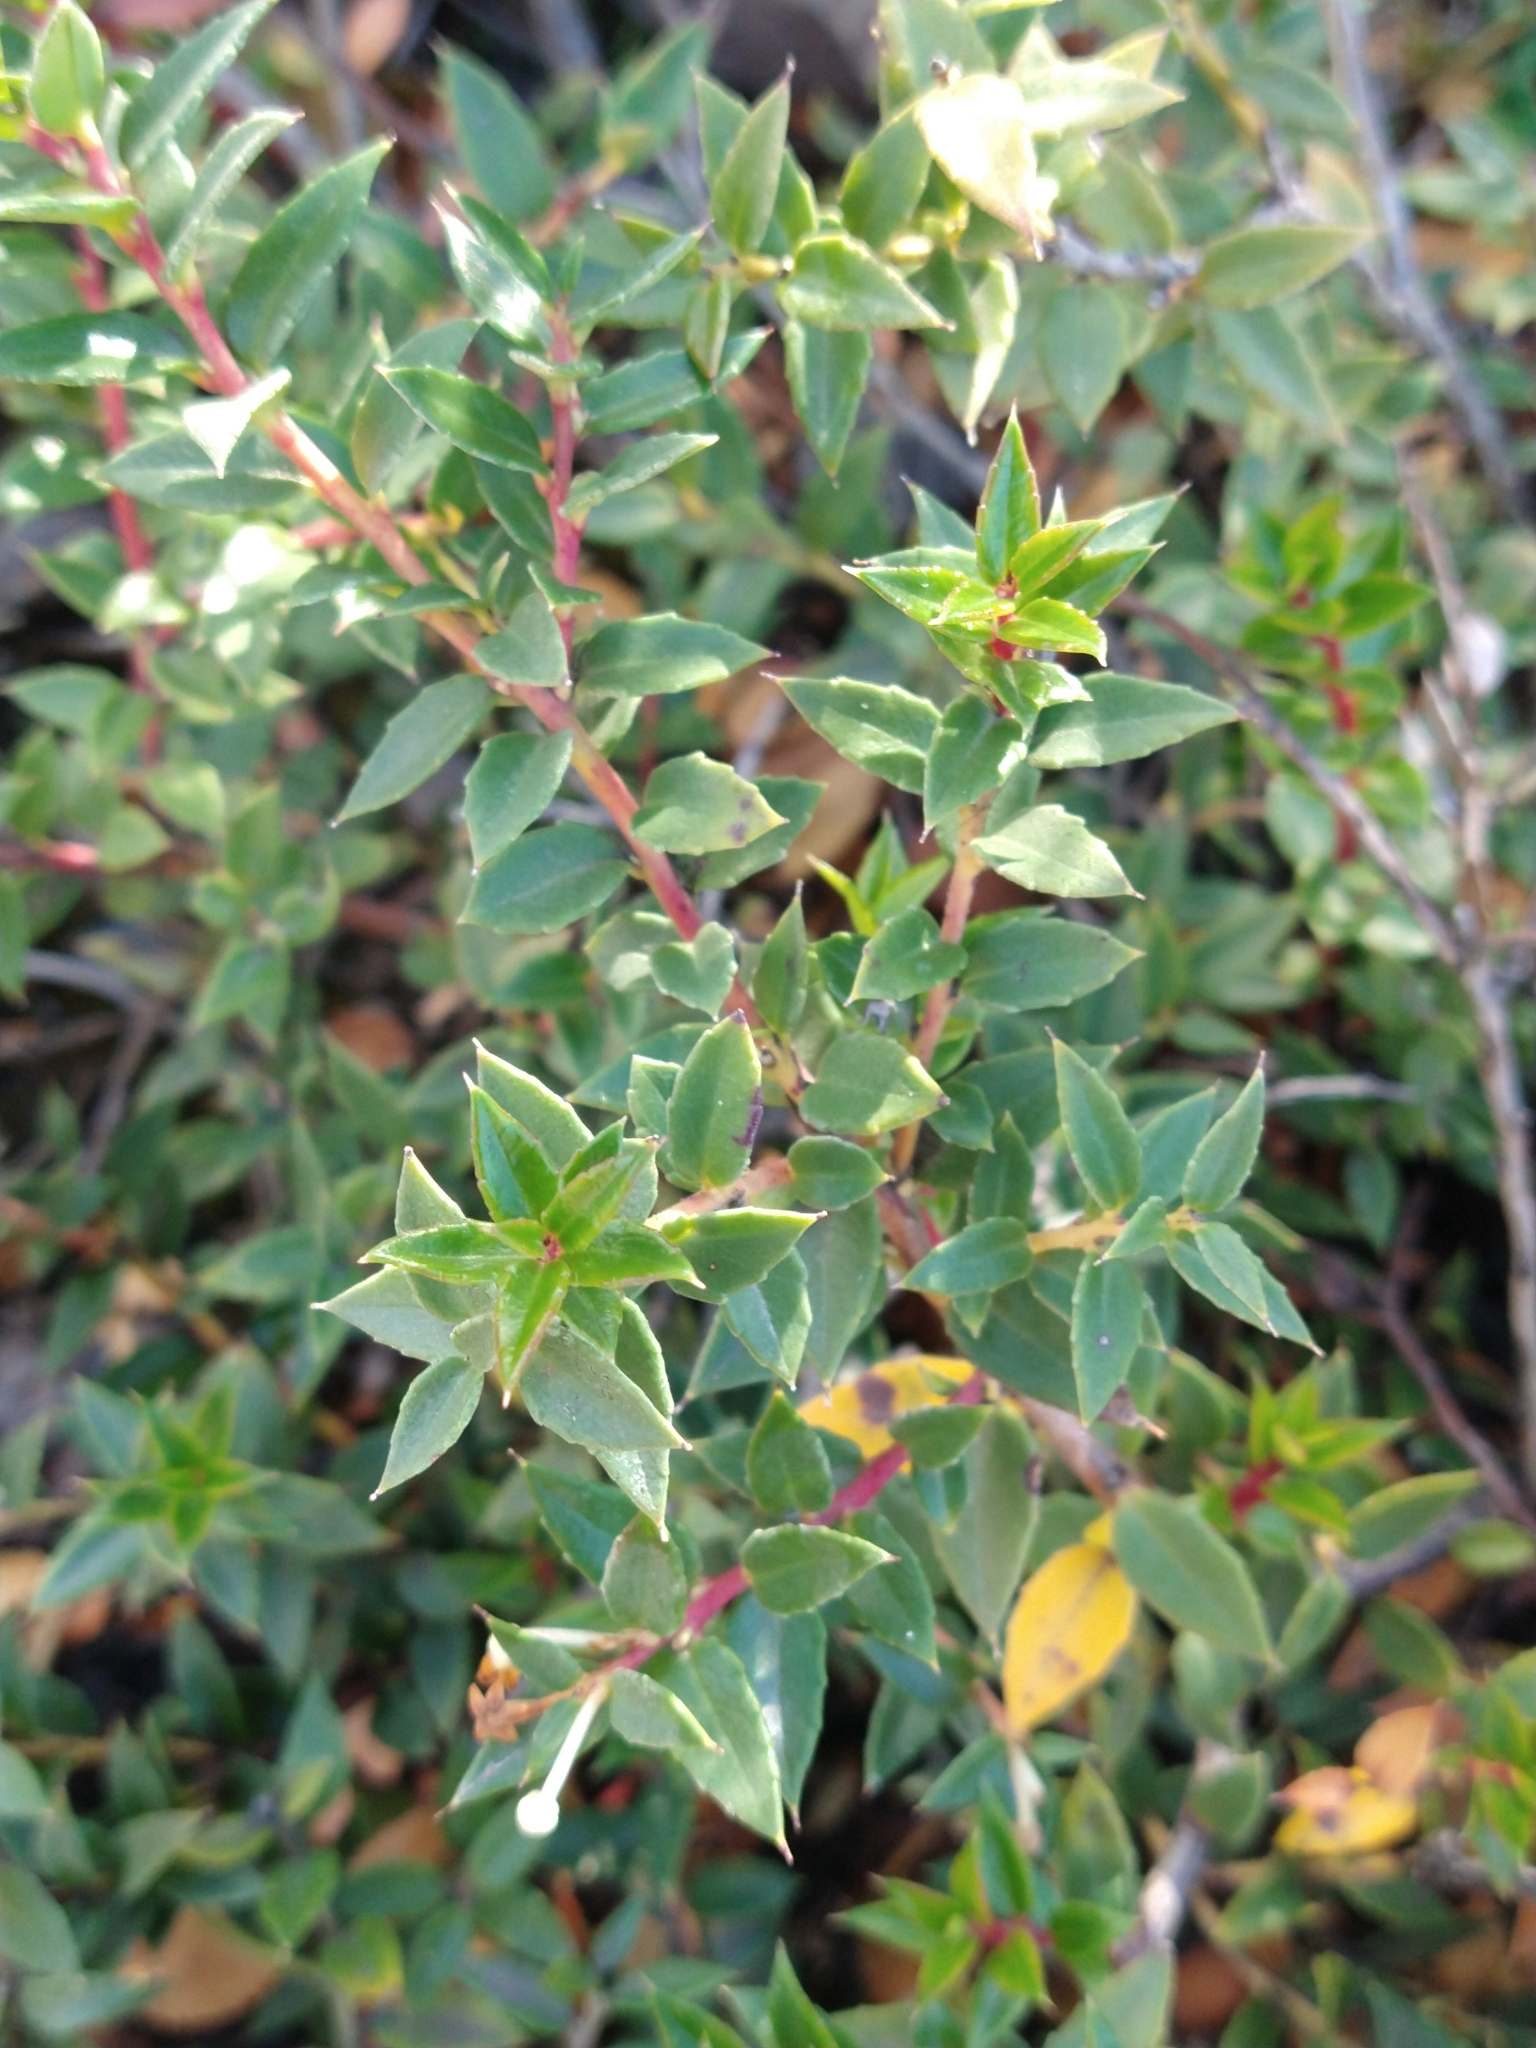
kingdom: Plantae
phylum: Tracheophyta
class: Magnoliopsida
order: Ericales
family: Ericaceae
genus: Gaultheria
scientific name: Gaultheria mucronata
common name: Prickly heath
